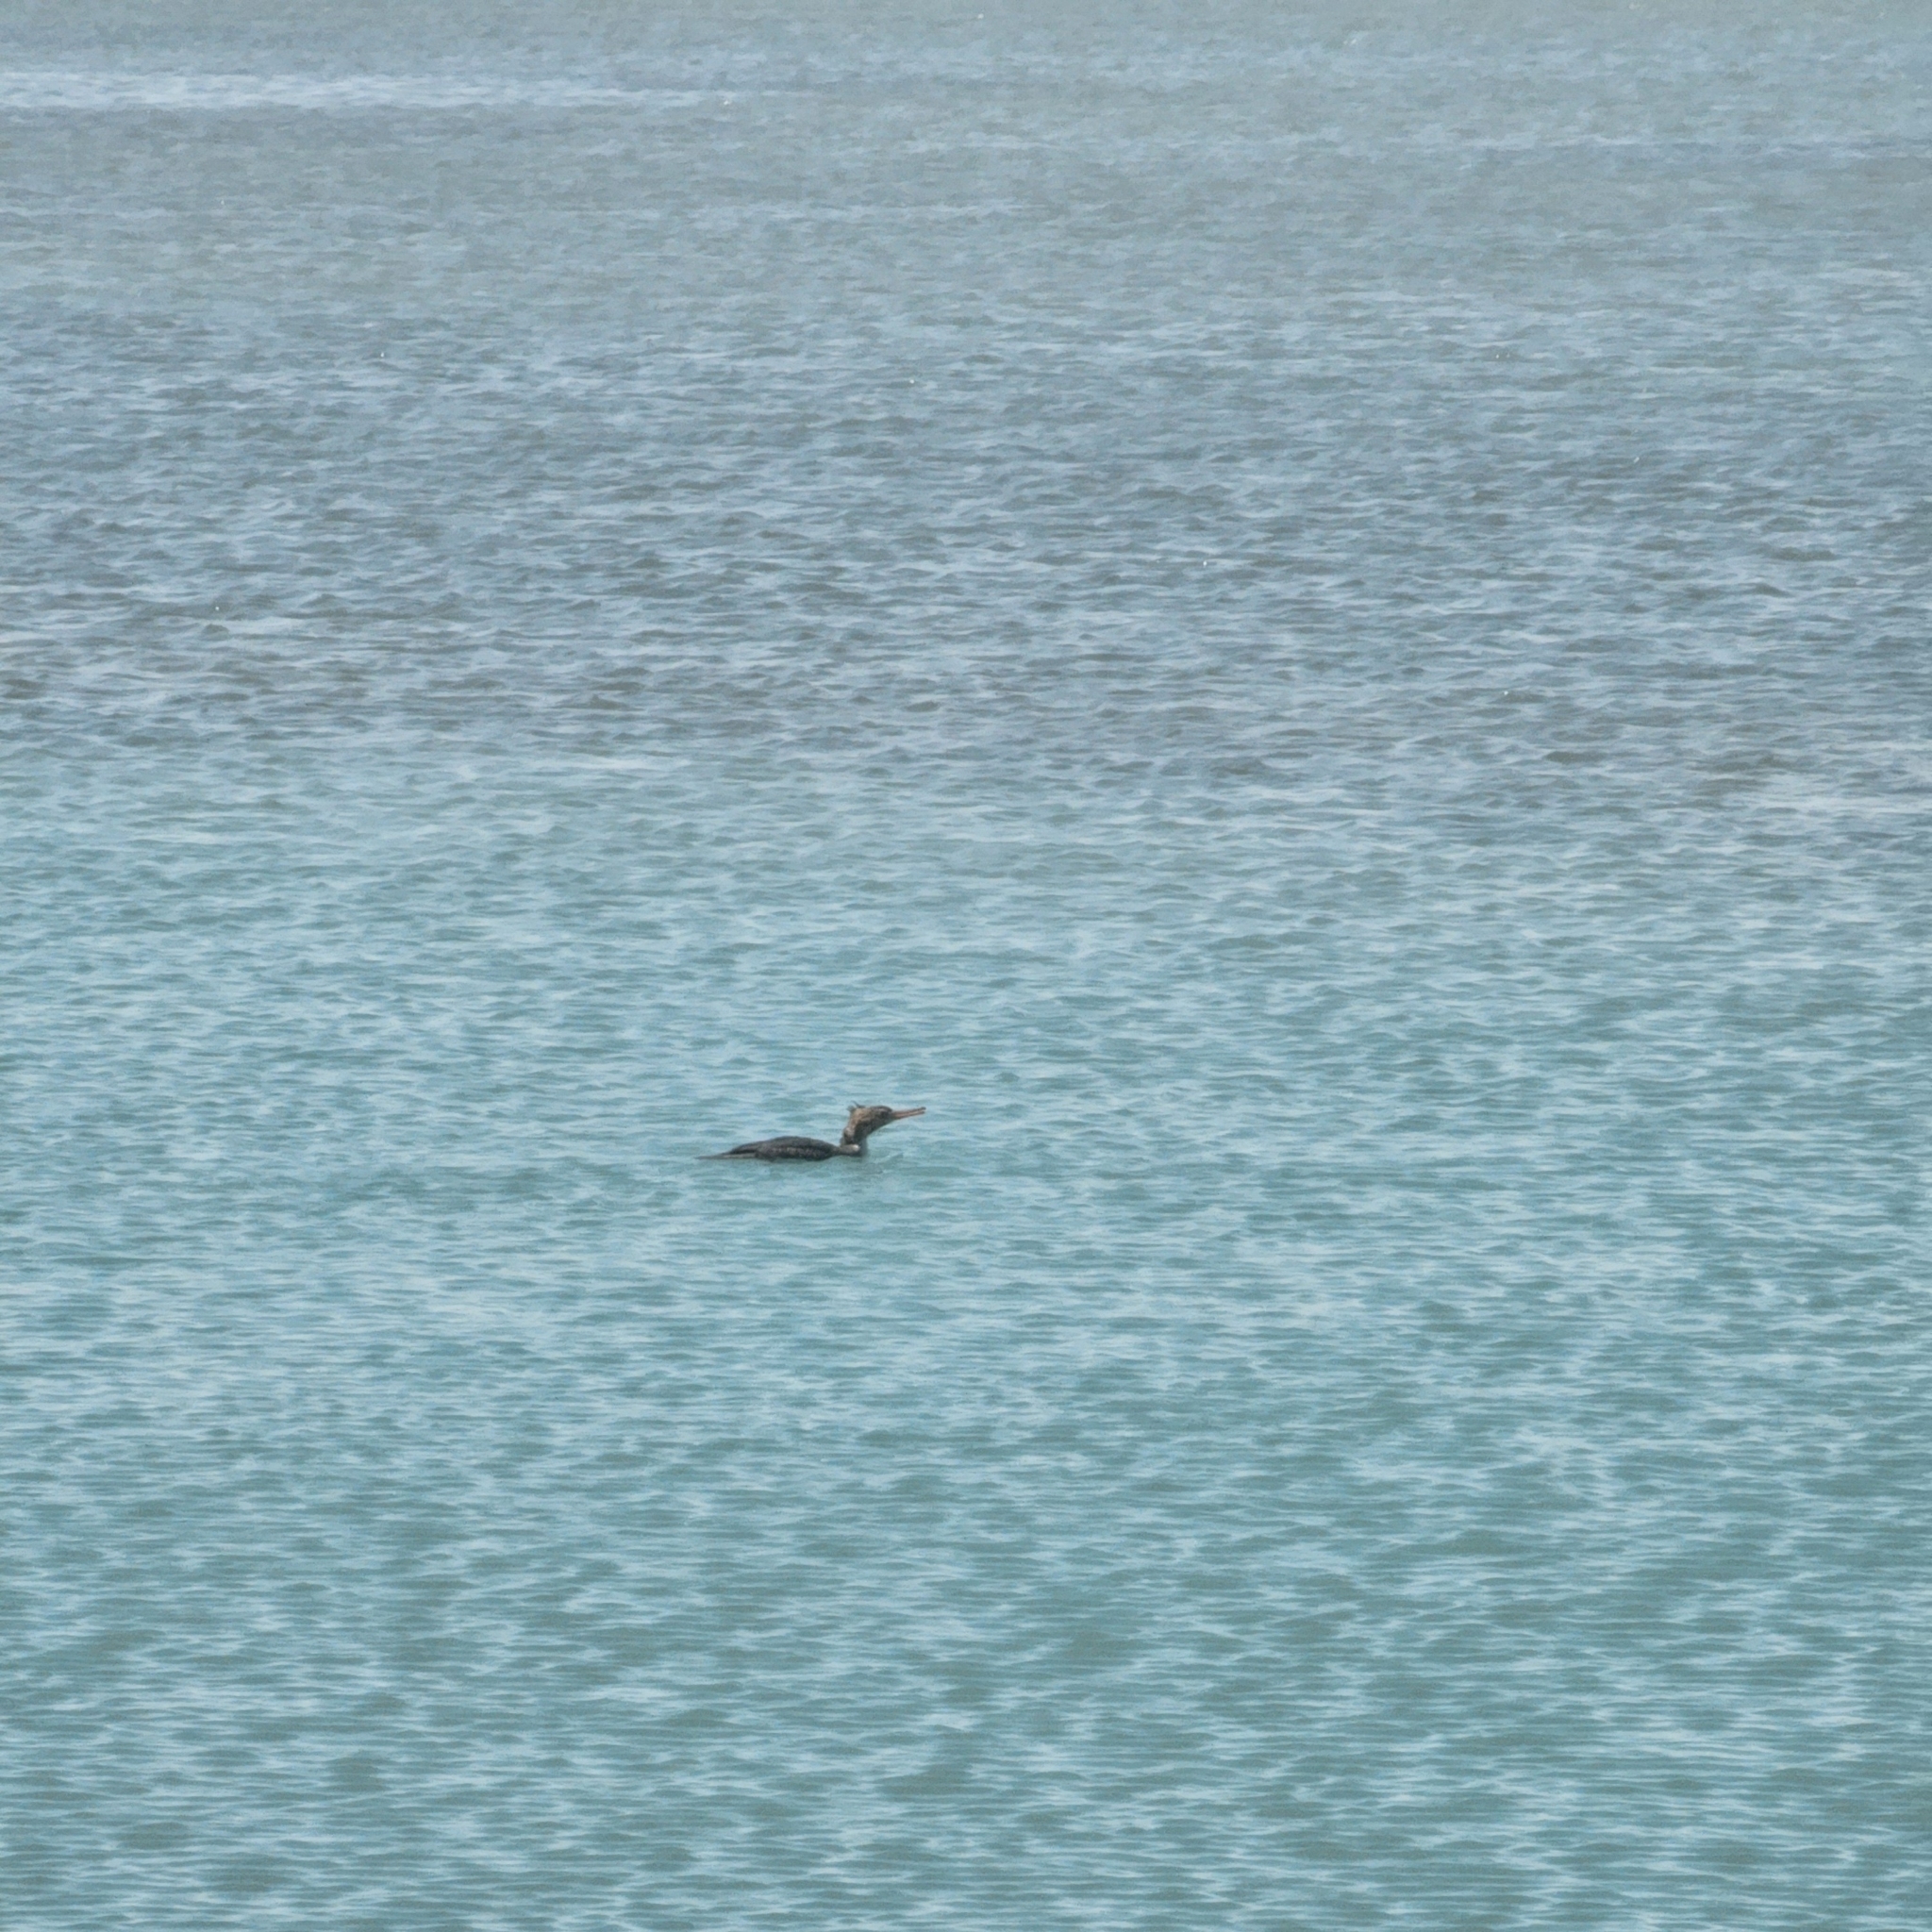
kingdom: Animalia
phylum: Chordata
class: Aves
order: Anseriformes
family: Anatidae
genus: Mergus
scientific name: Mergus serrator
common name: Red-breasted merganser
